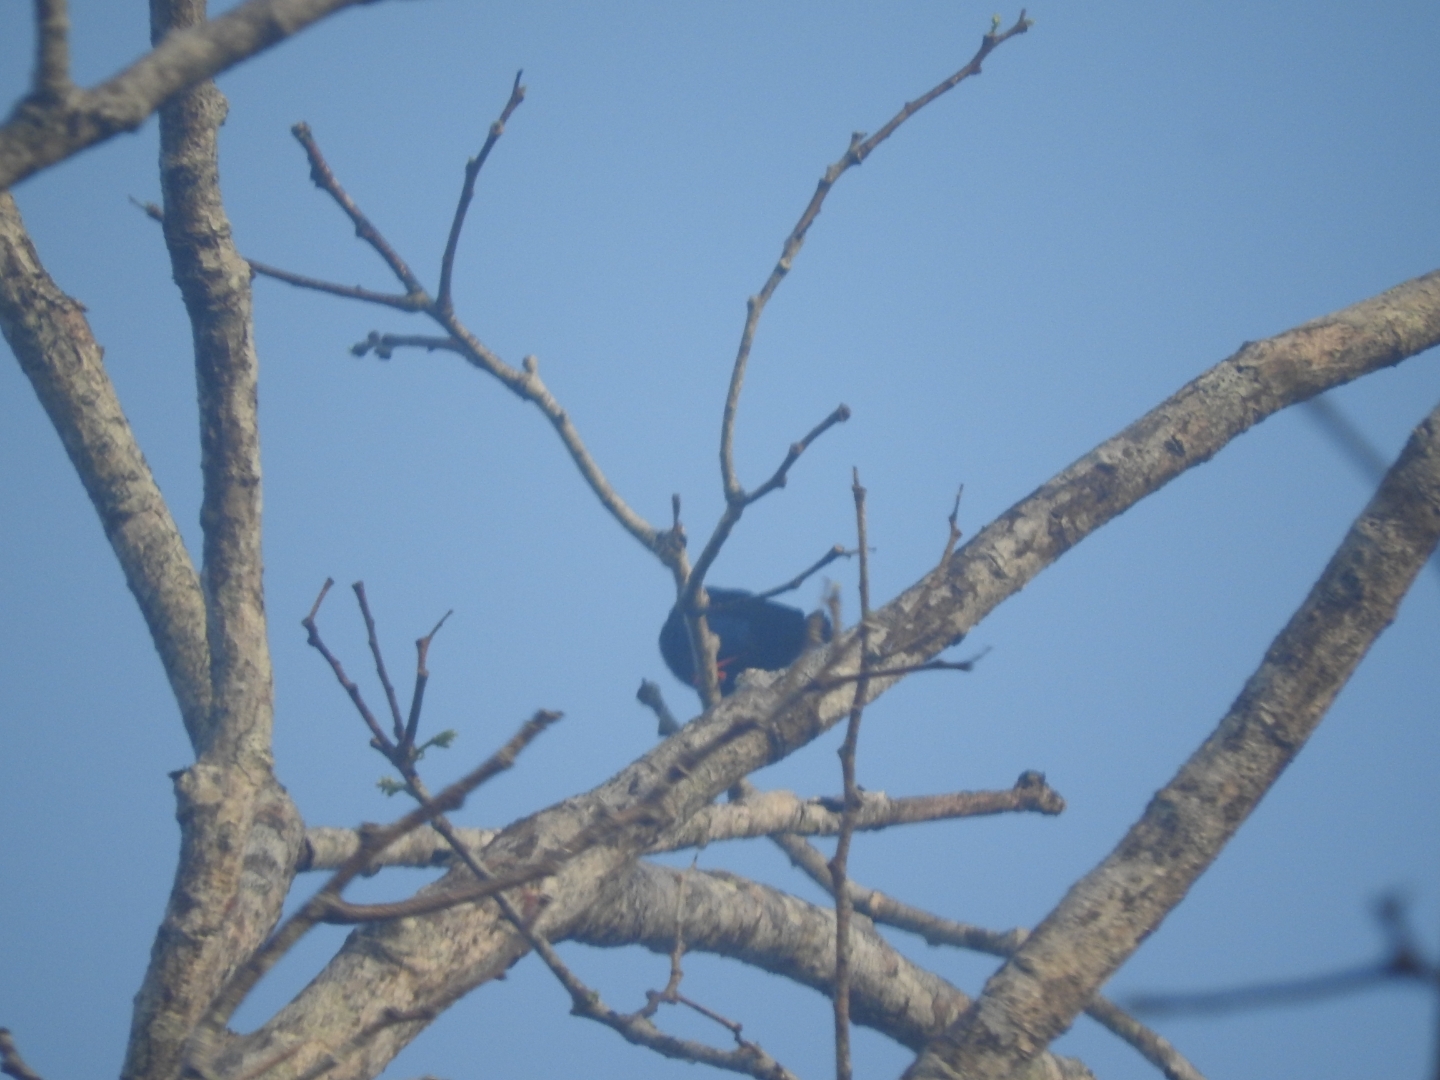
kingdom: Animalia
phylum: Chordata
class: Aves
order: Passeriformes
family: Thraupidae
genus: Cyanerpes
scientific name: Cyanerpes cyaneus
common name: Red-legged honeycreeper
